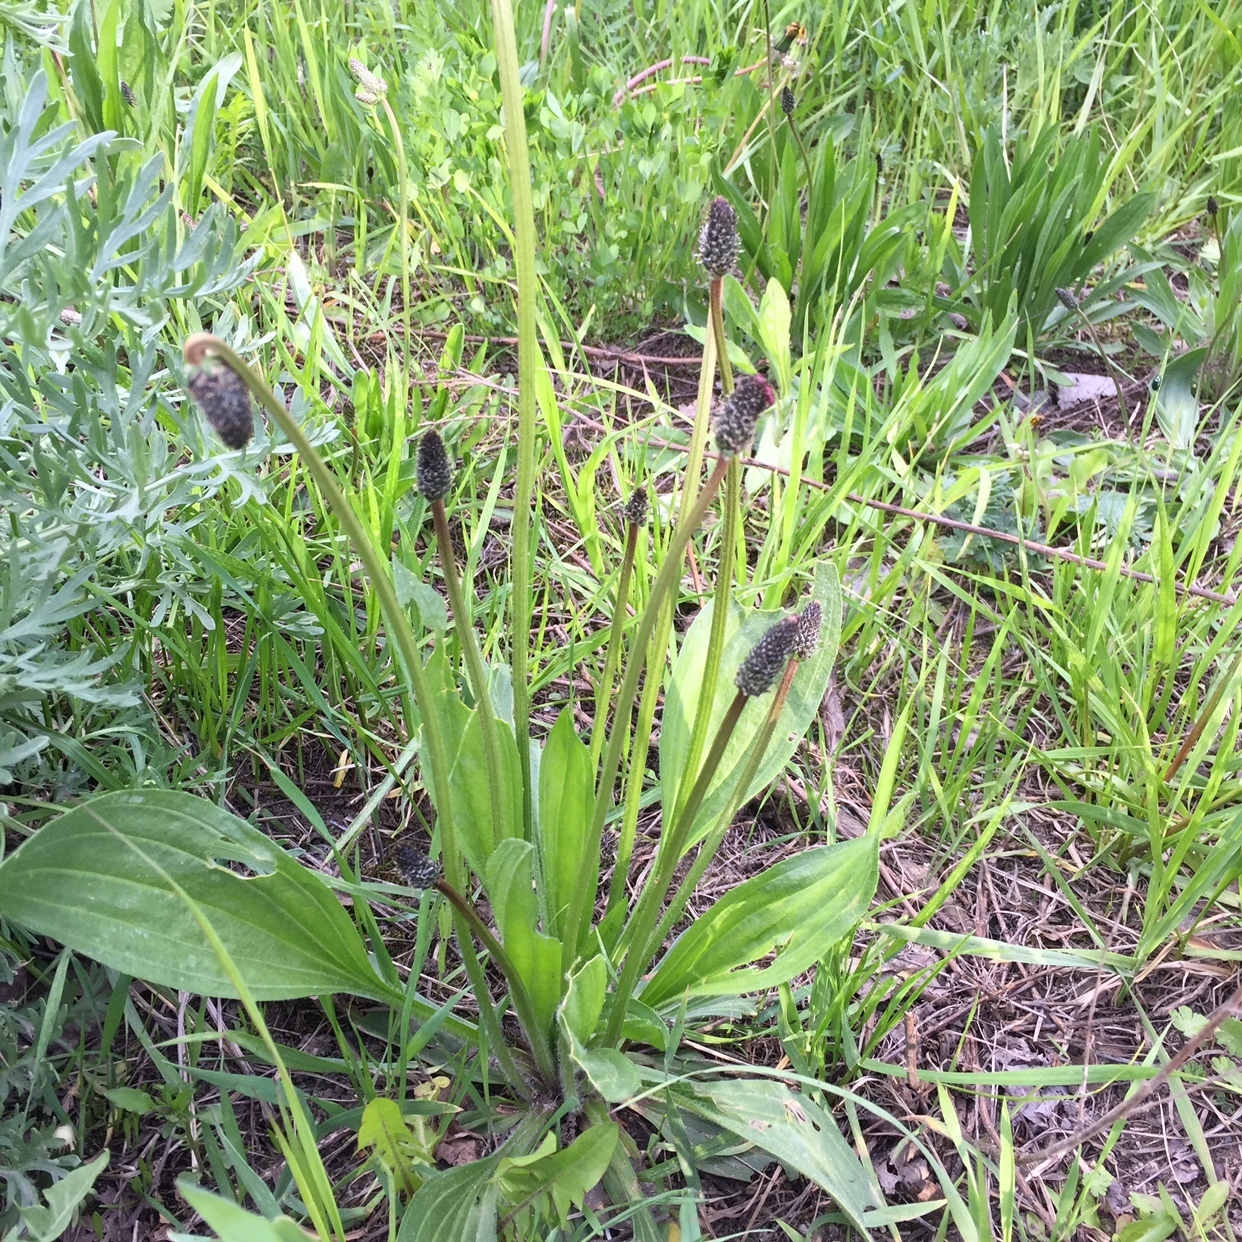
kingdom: Plantae
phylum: Tracheophyta
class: Magnoliopsida
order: Lamiales
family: Plantaginaceae
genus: Plantago
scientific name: Plantago lanceolata
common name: Ribwort plantain
